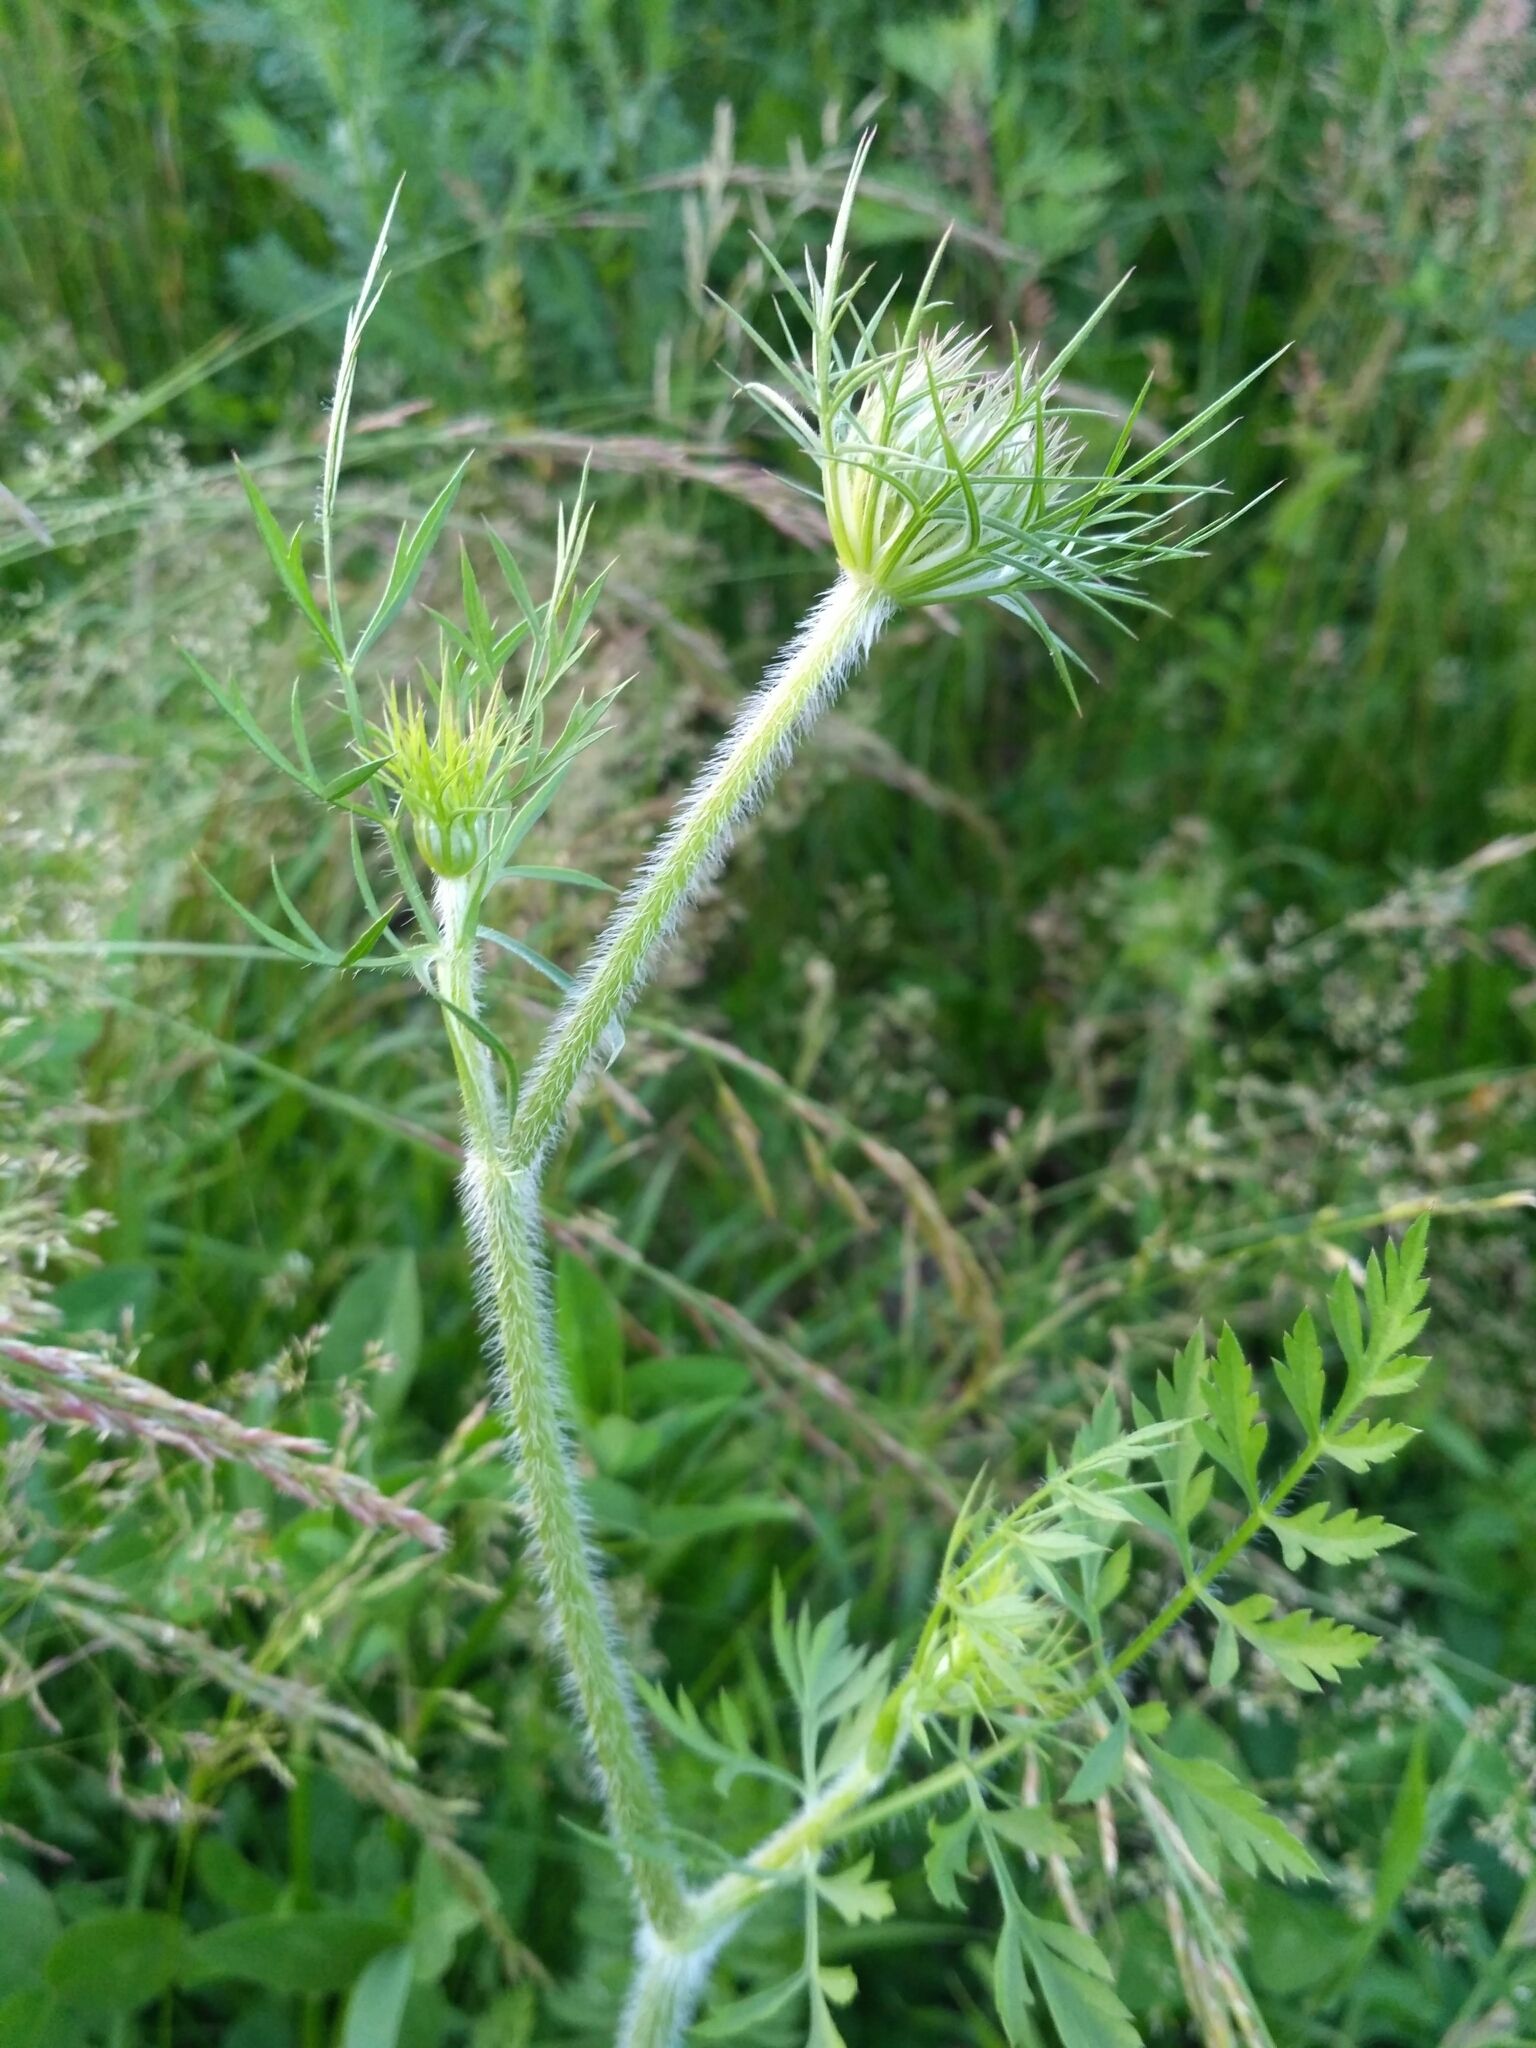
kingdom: Plantae
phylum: Tracheophyta
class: Magnoliopsida
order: Apiales
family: Apiaceae
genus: Daucus
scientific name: Daucus carota
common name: Wild carrot
